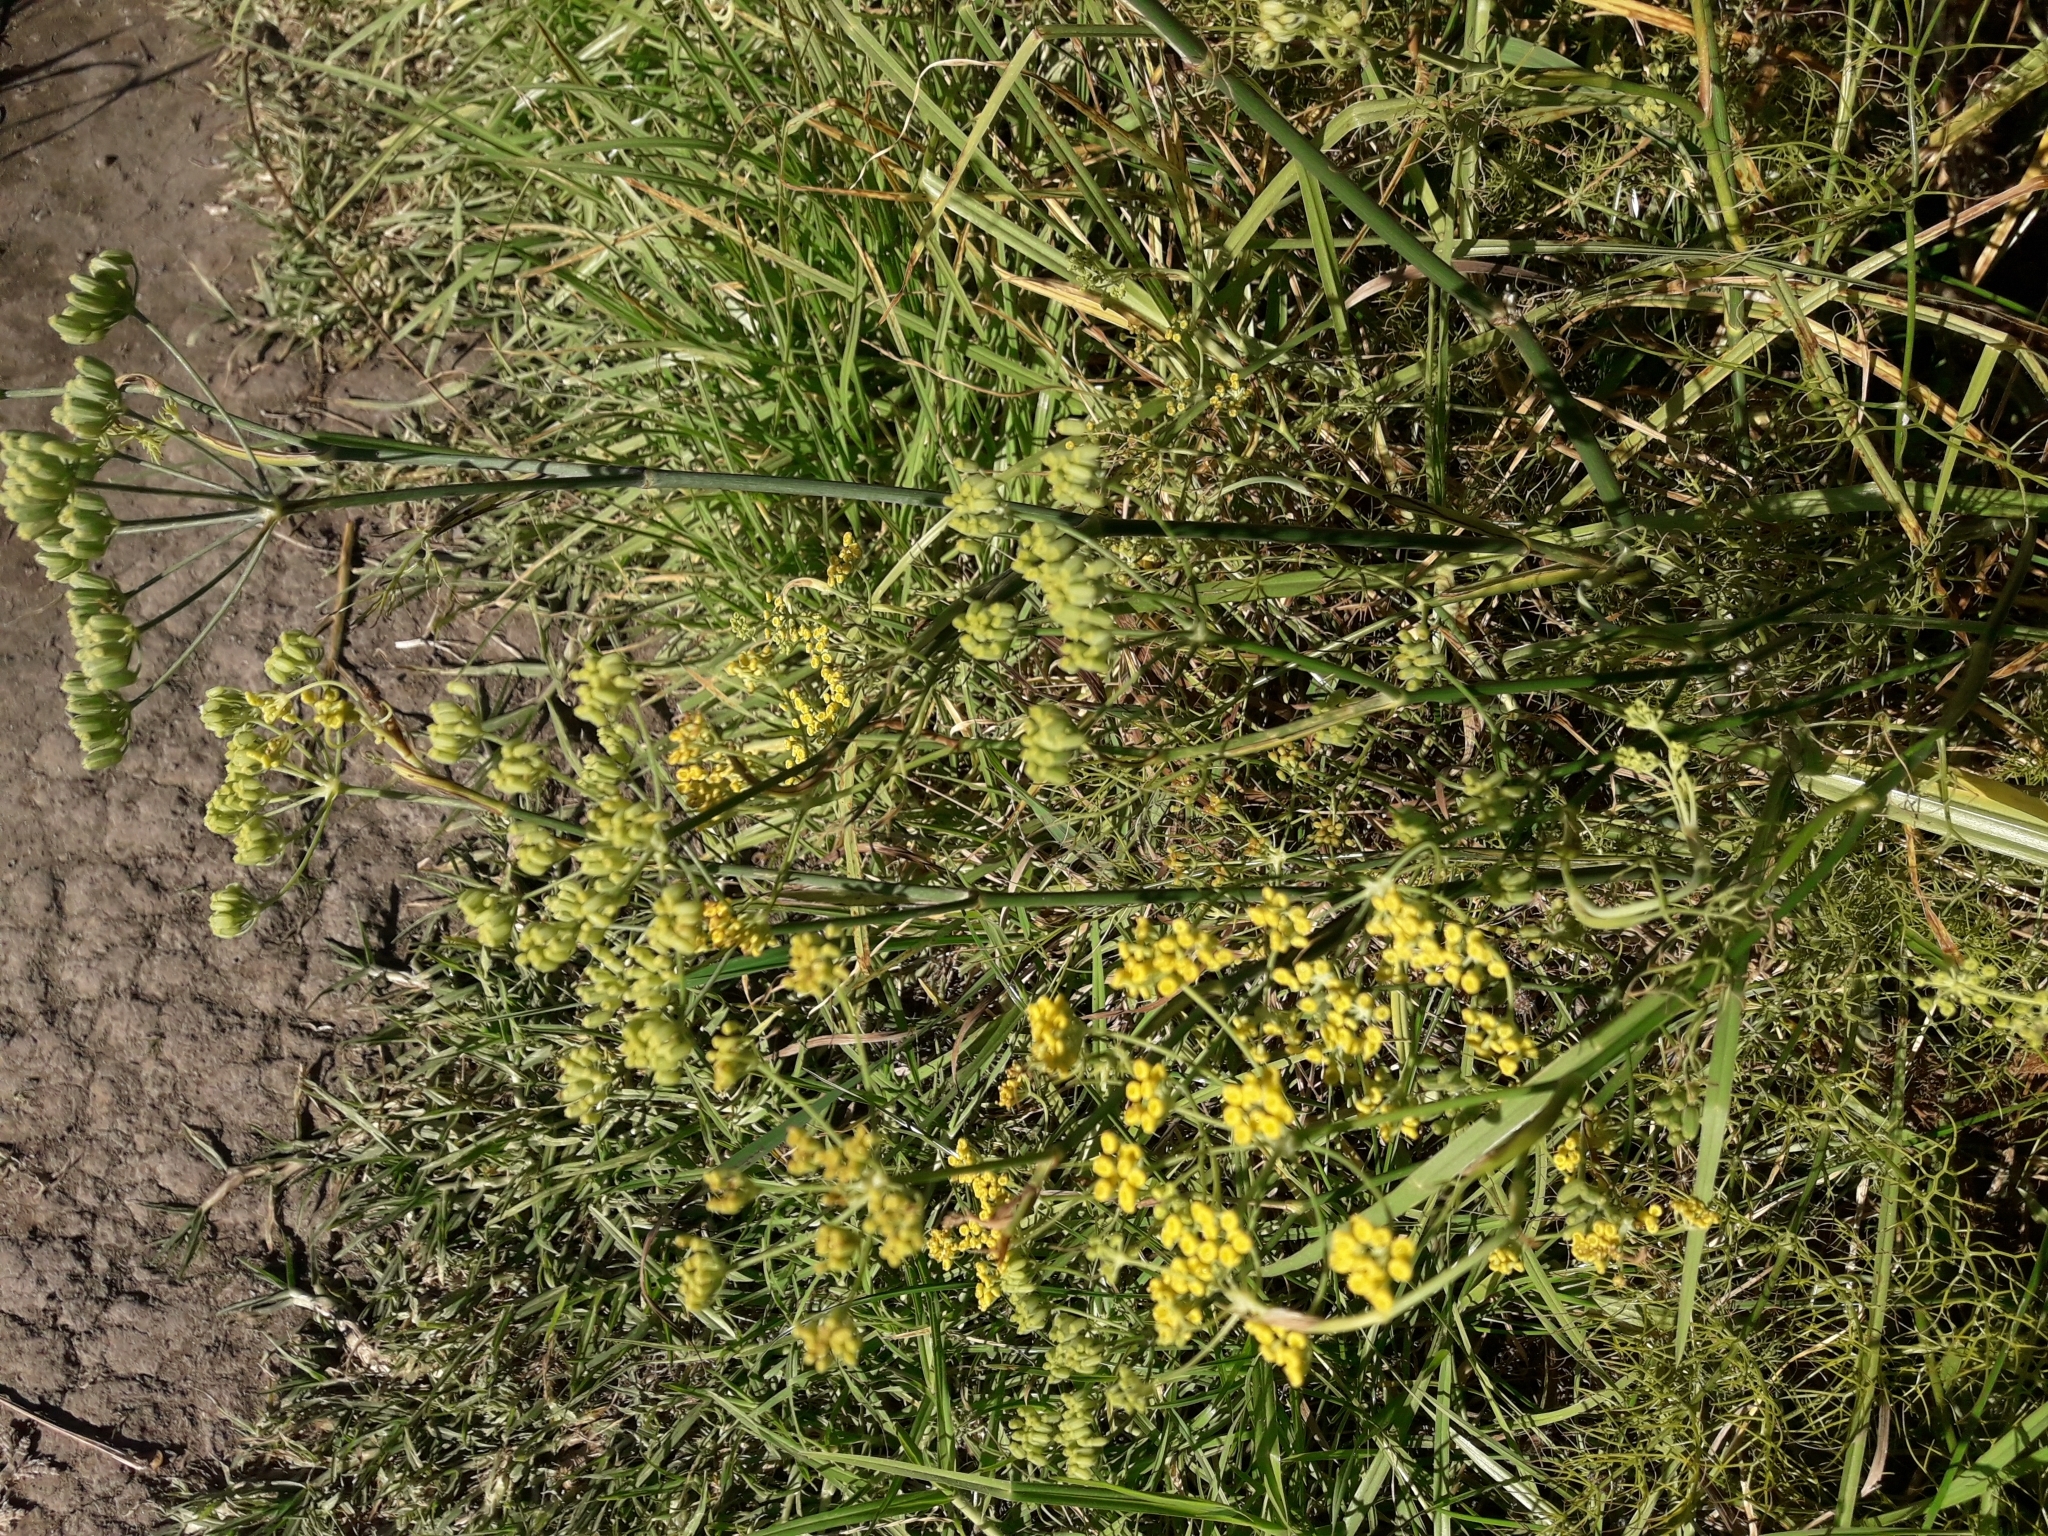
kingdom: Plantae
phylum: Tracheophyta
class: Magnoliopsida
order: Apiales
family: Apiaceae
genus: Foeniculum
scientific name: Foeniculum vulgare
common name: Fennel
